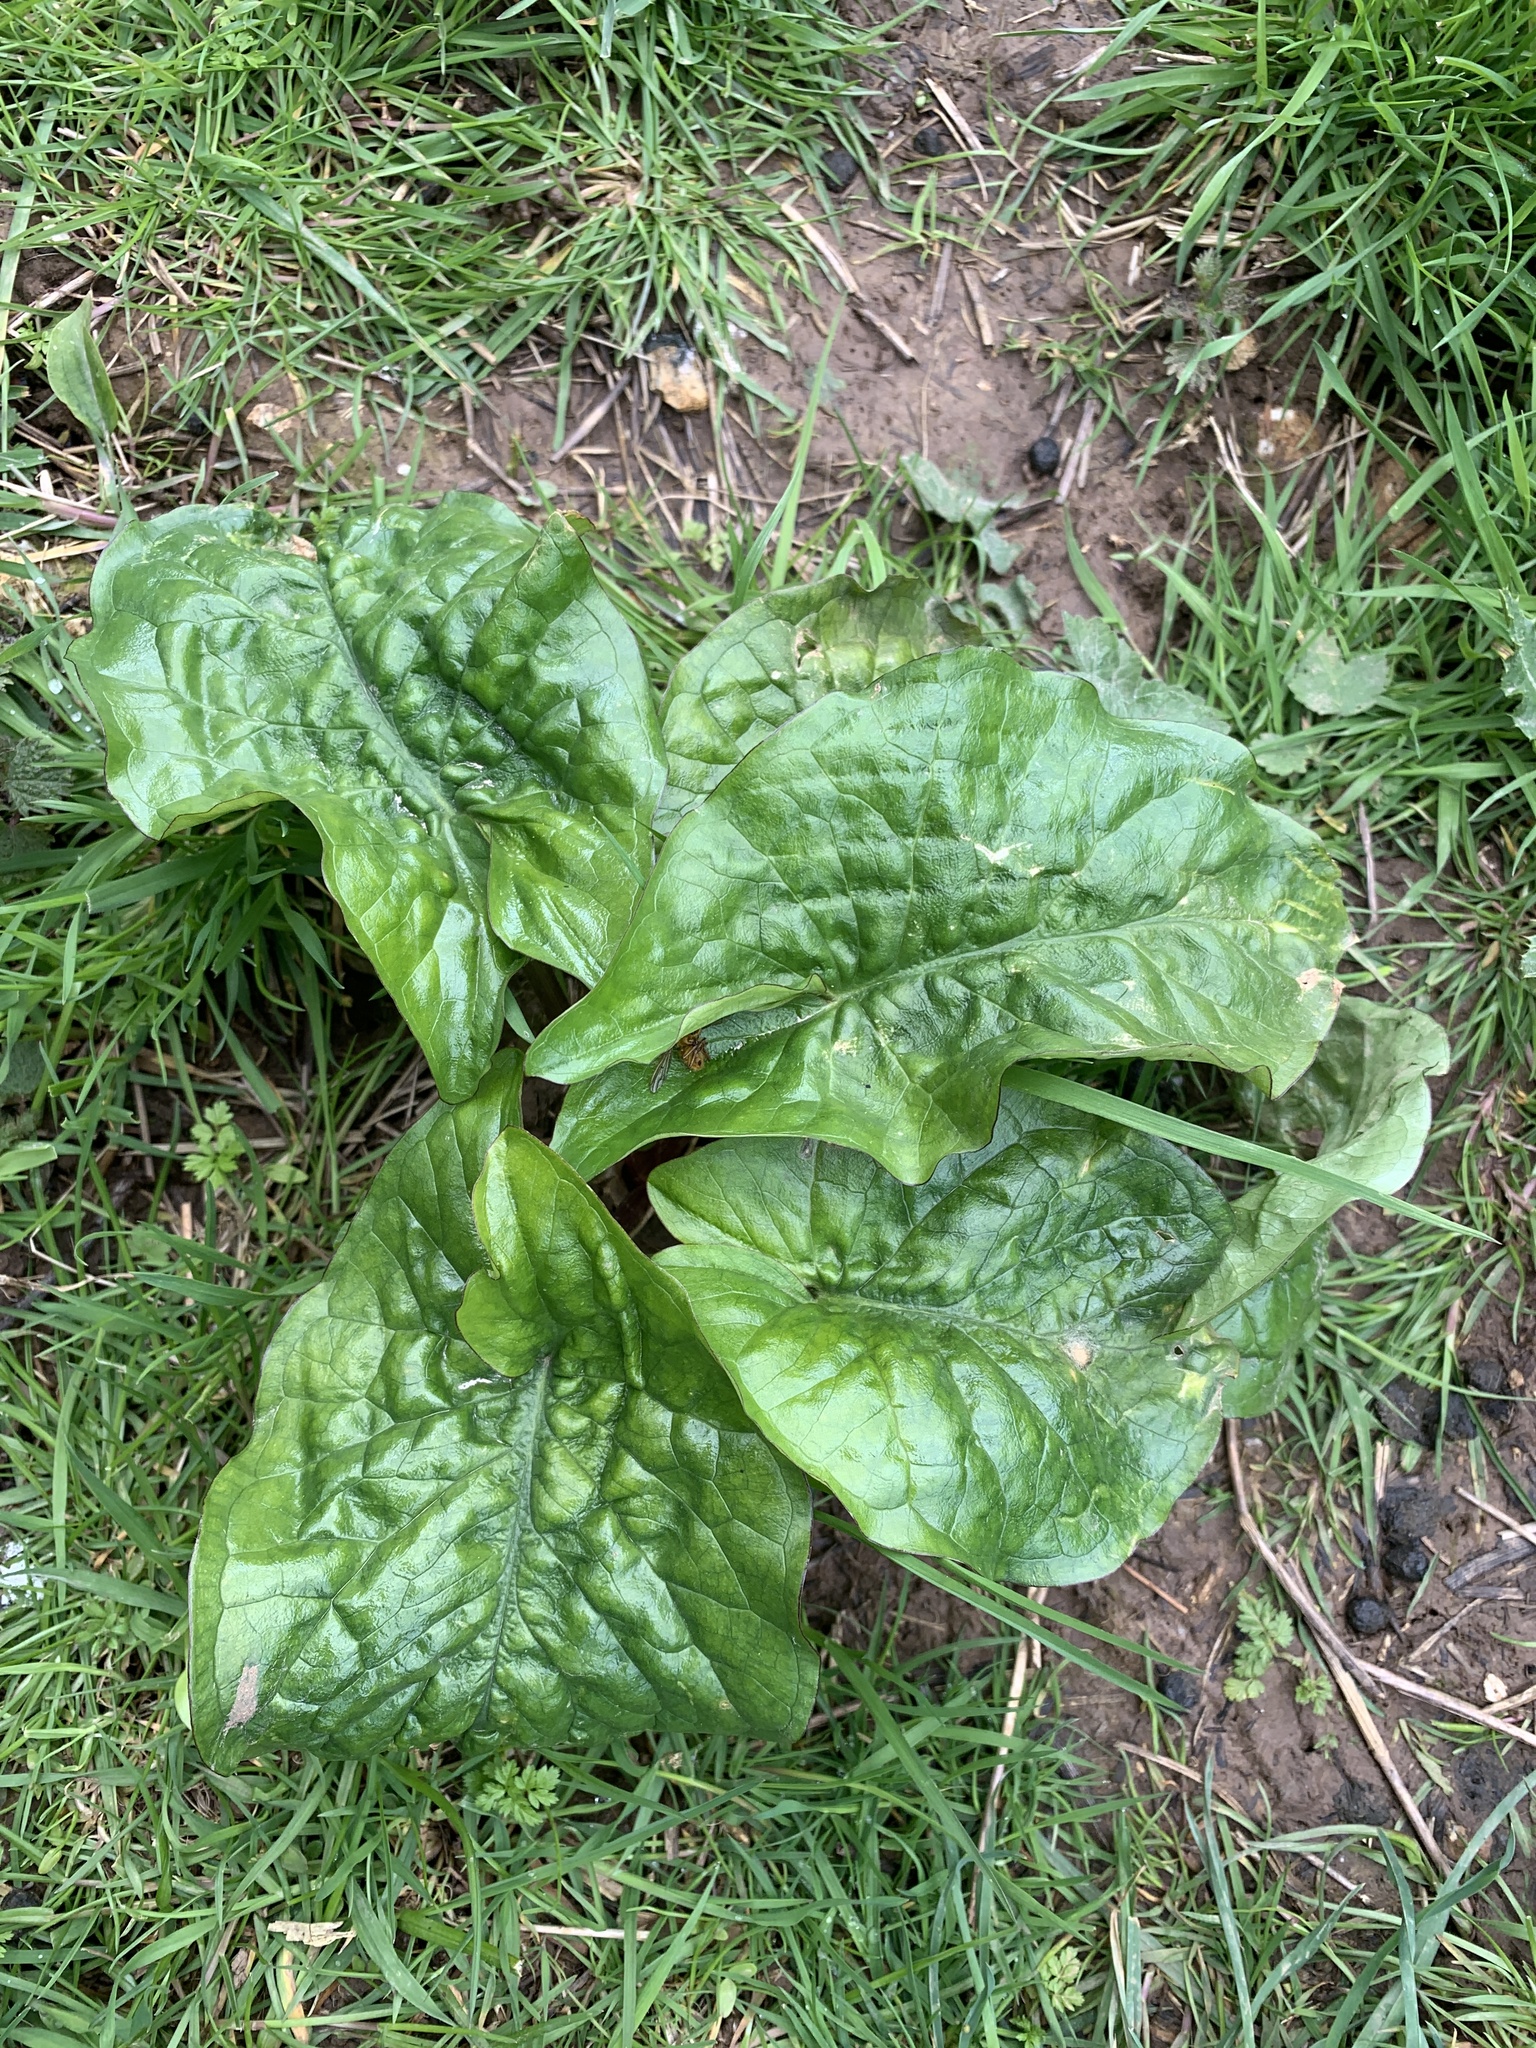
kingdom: Plantae
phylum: Tracheophyta
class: Liliopsida
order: Alismatales
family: Araceae
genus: Arum
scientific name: Arum maculatum
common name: Lords-and-ladies
